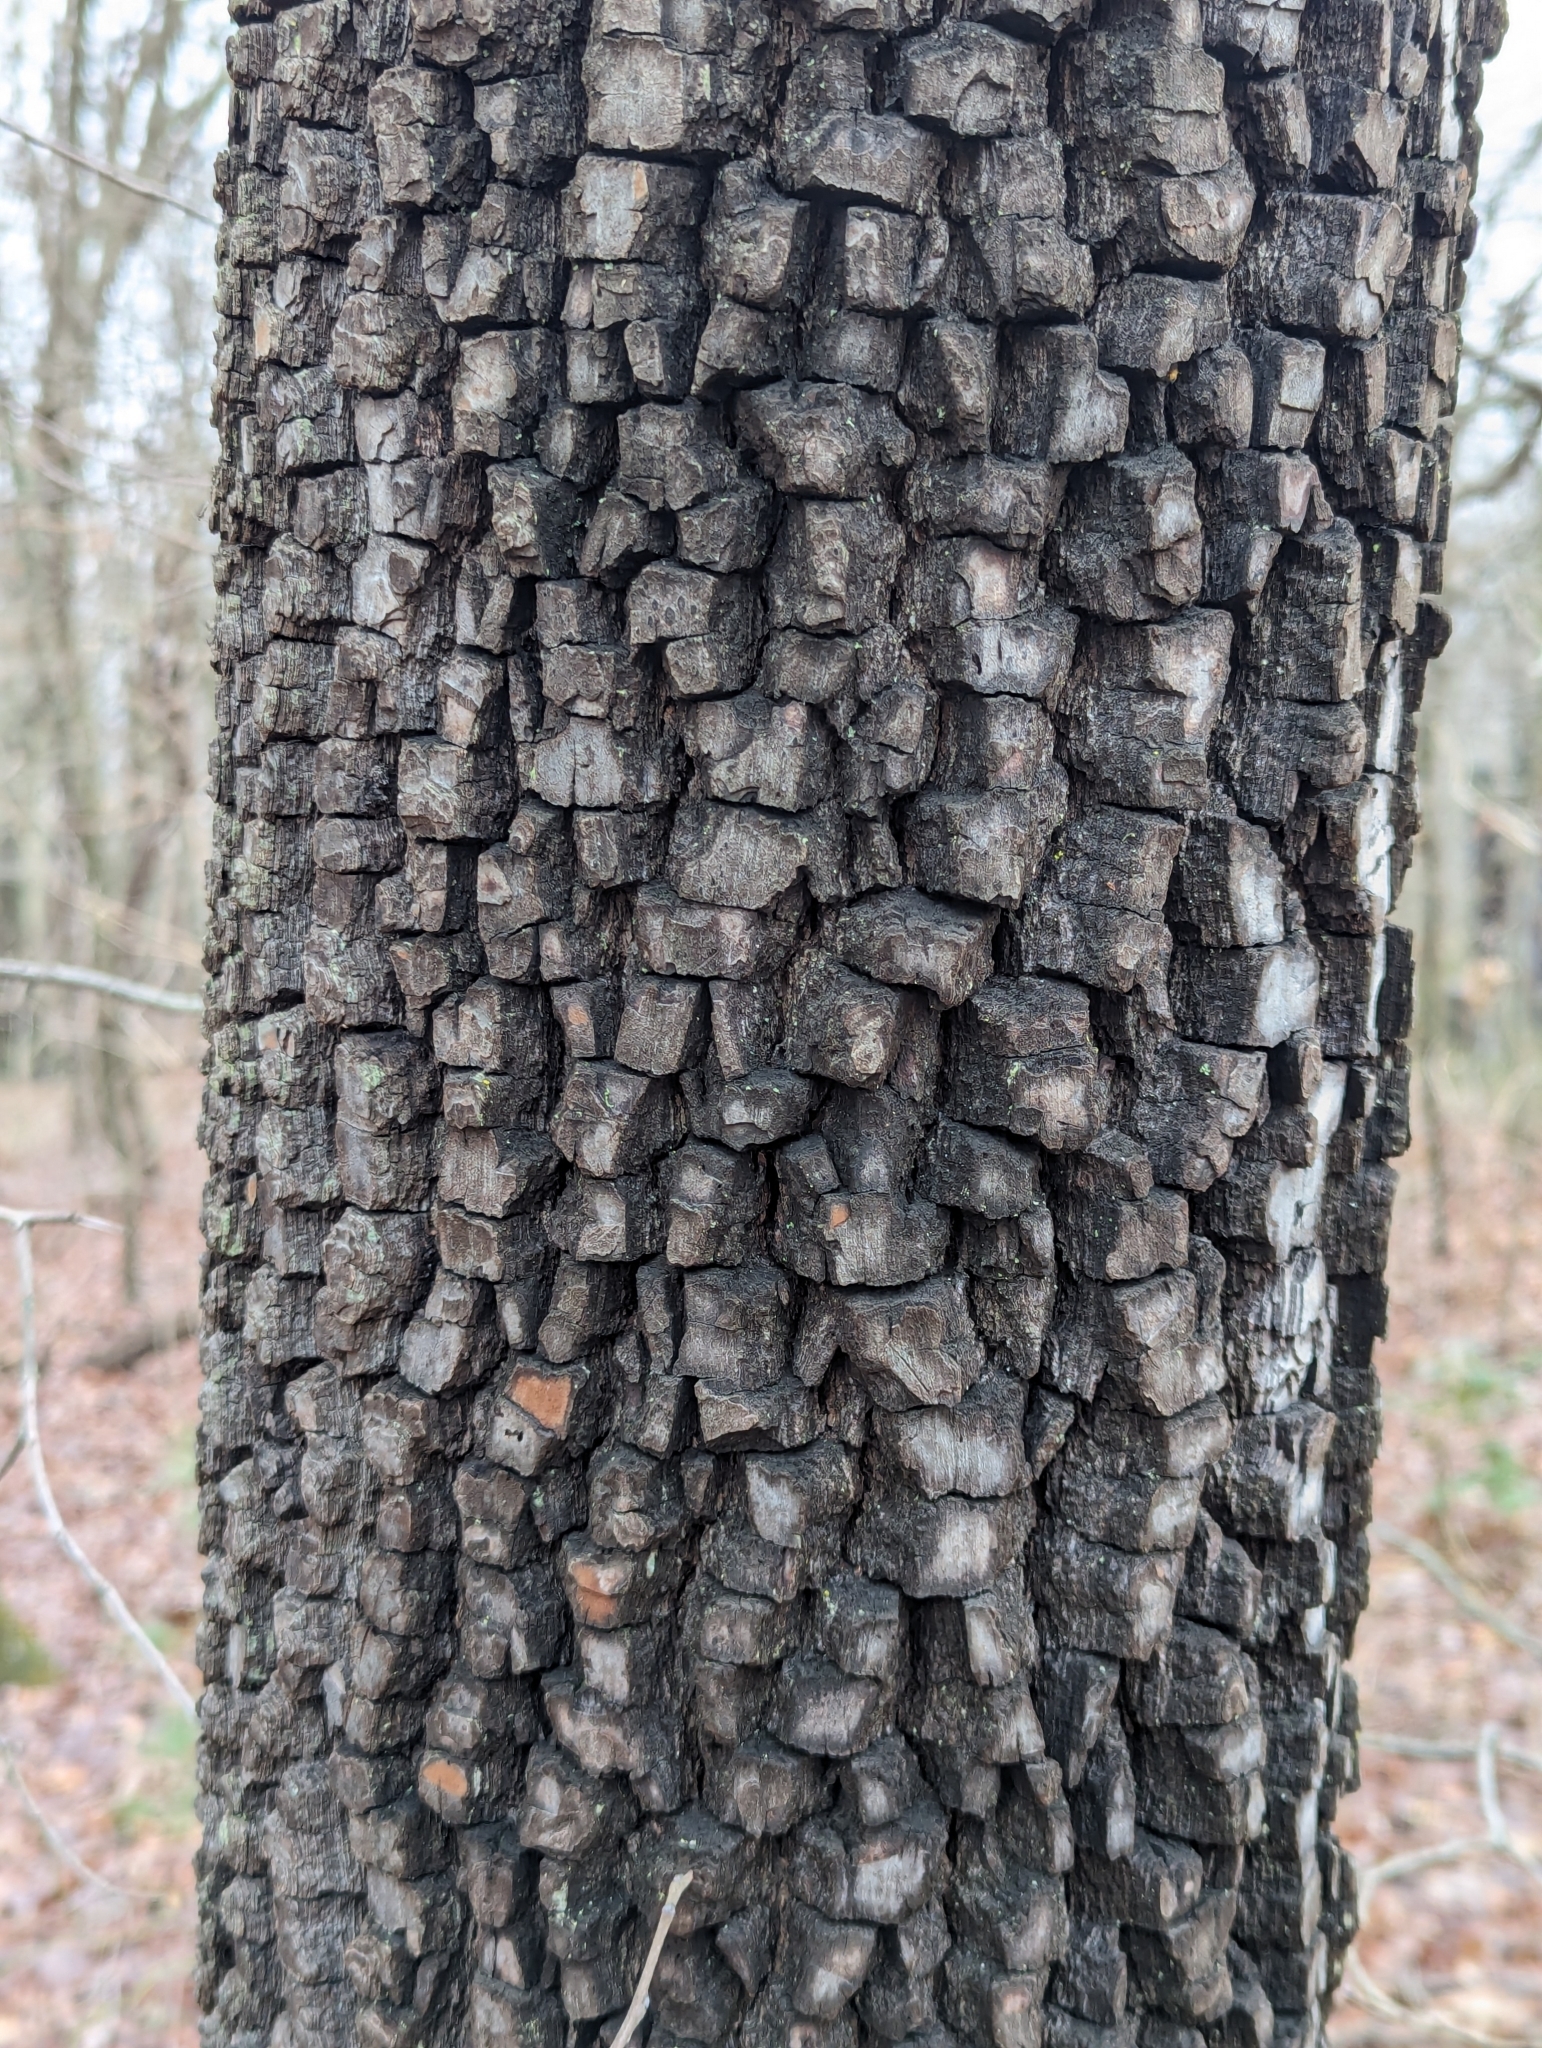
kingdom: Plantae
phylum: Tracheophyta
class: Magnoliopsida
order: Ericales
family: Ebenaceae
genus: Diospyros
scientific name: Diospyros virginiana
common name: Persimmon
